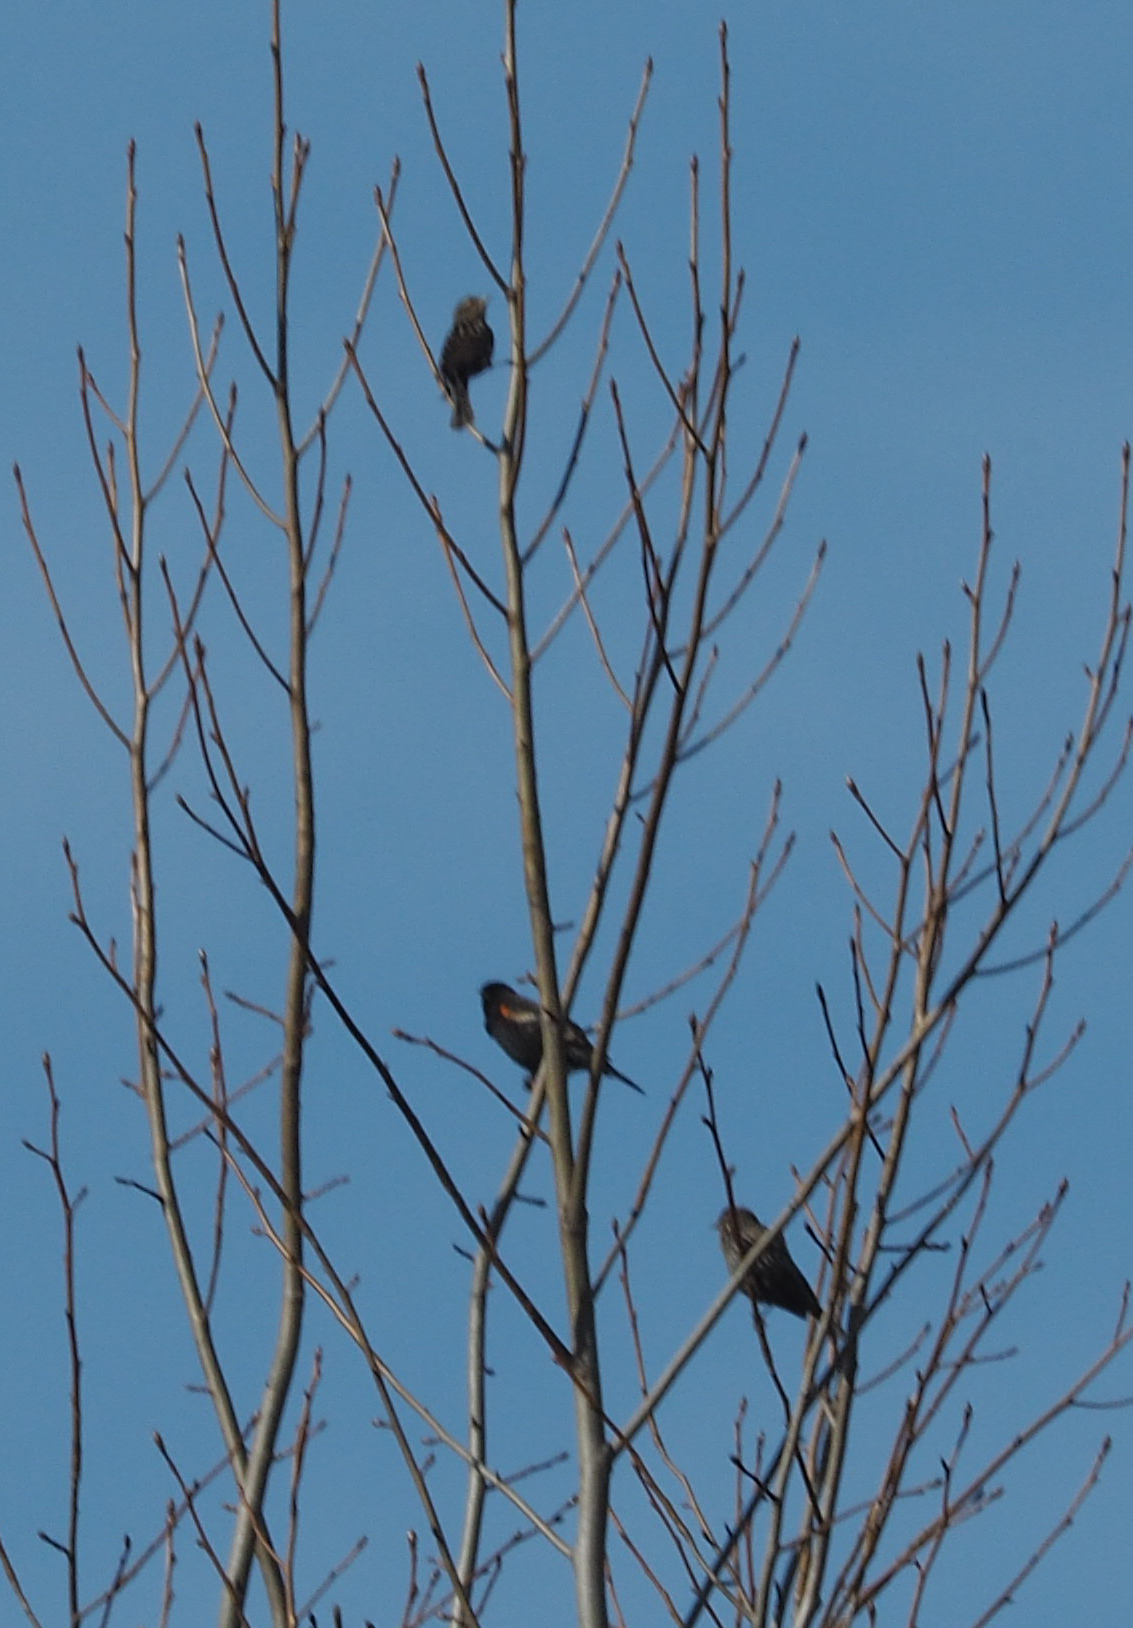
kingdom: Animalia
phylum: Chordata
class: Aves
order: Passeriformes
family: Icteridae
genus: Agelaius
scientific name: Agelaius phoeniceus
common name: Red-winged blackbird
